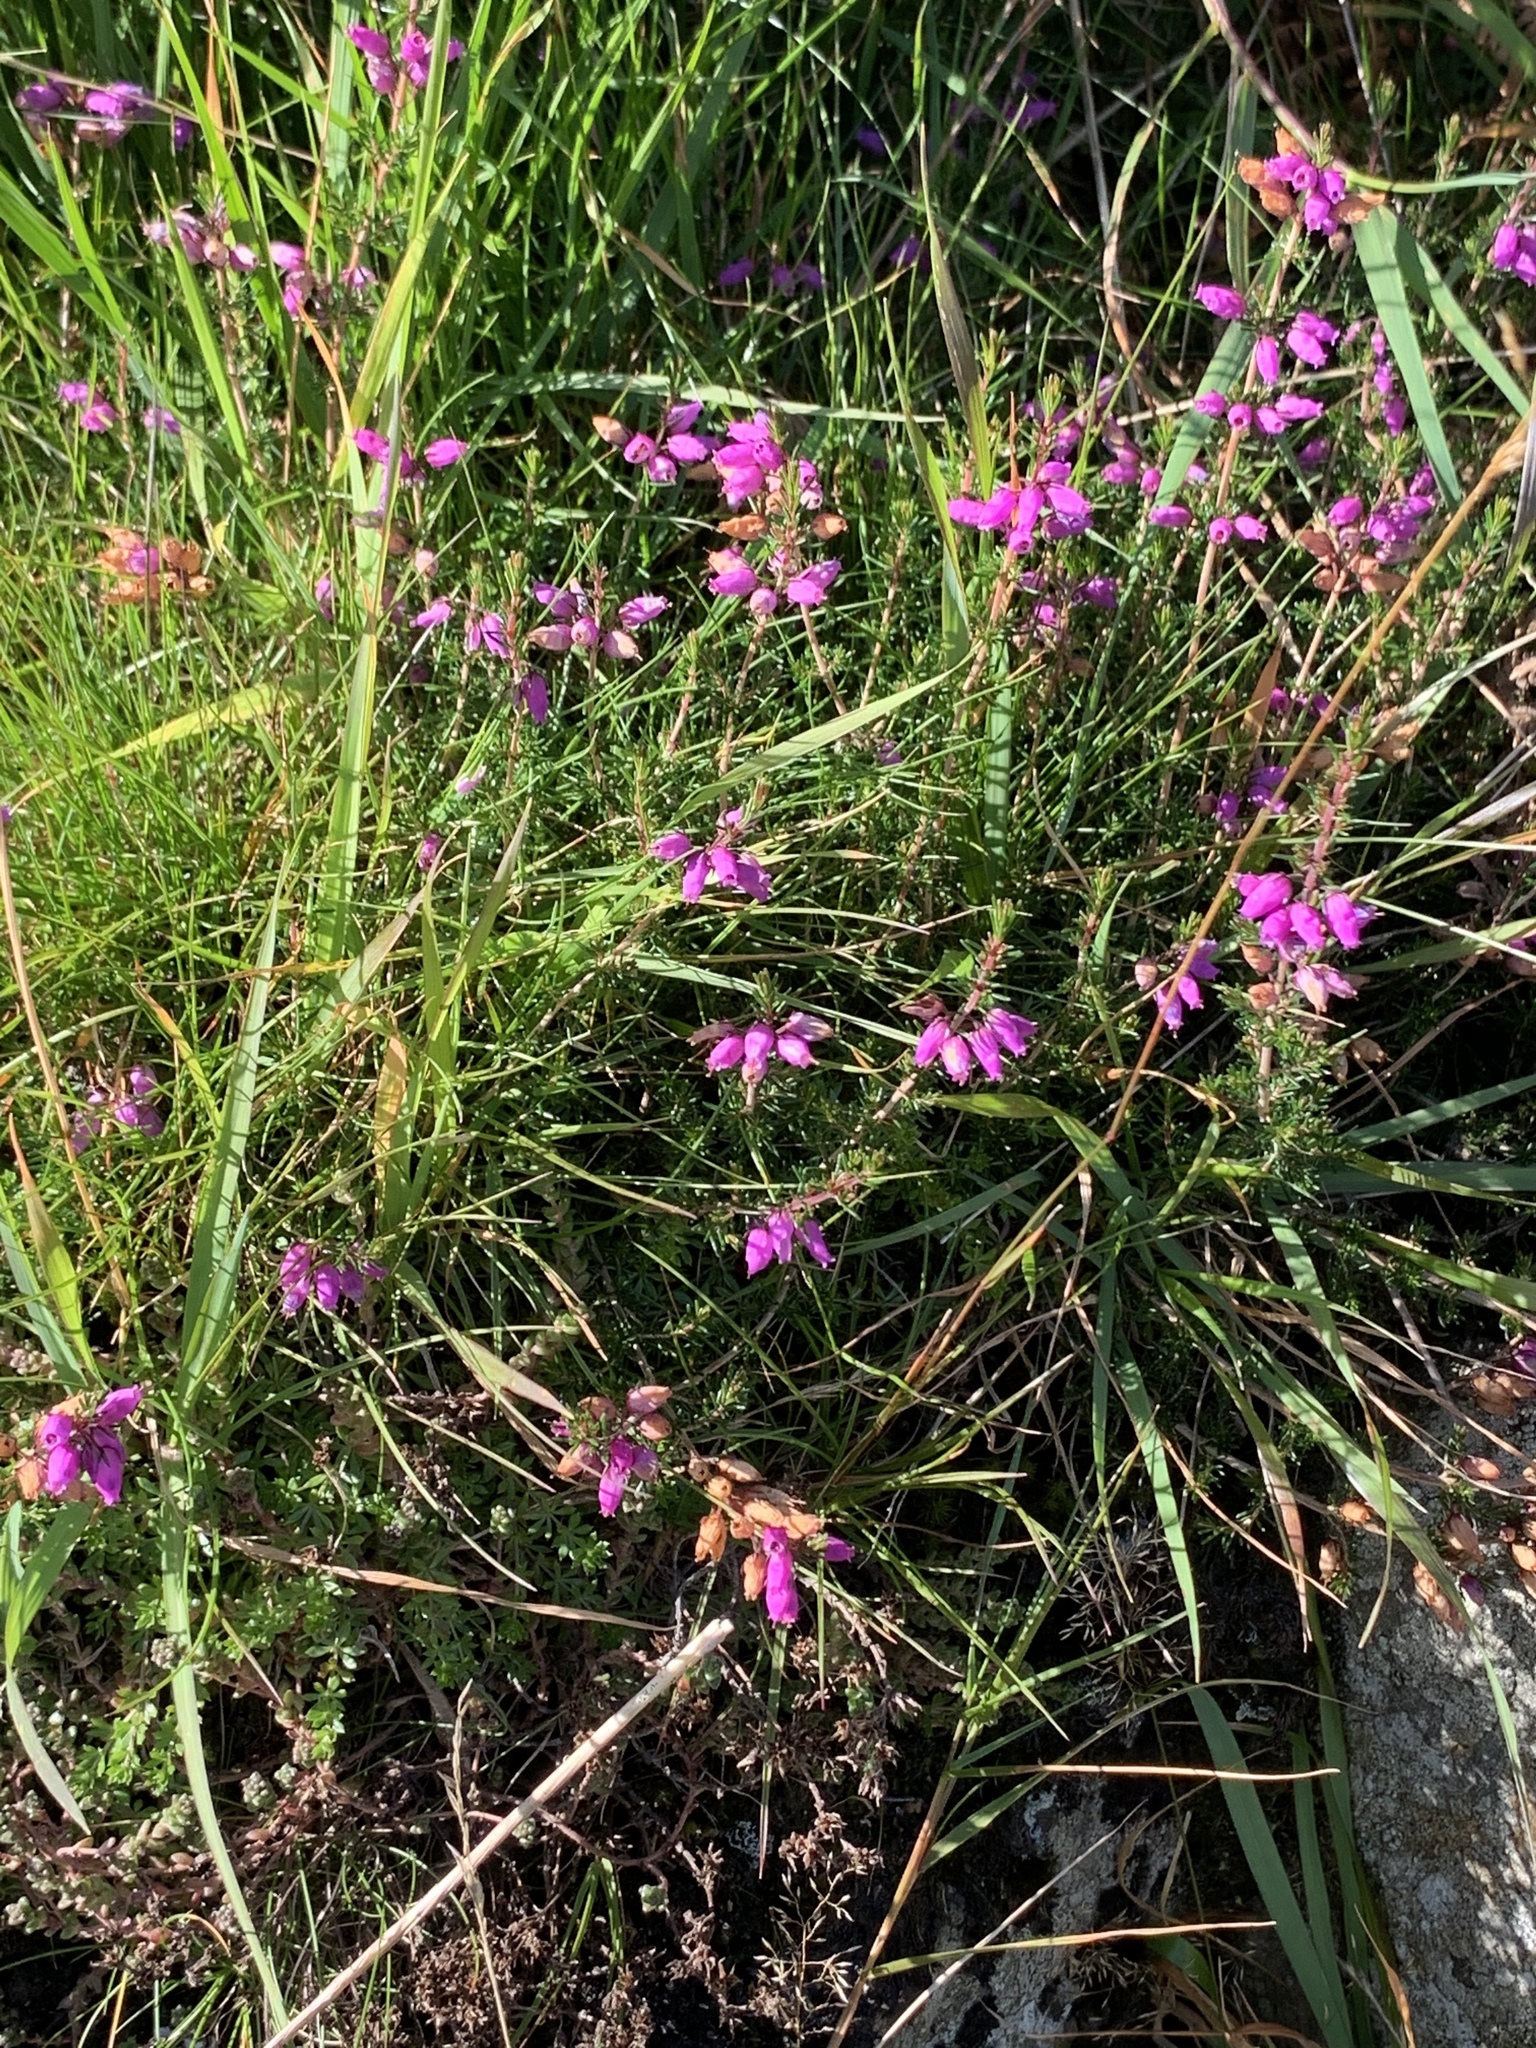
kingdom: Plantae
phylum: Tracheophyta
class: Magnoliopsida
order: Ericales
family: Ericaceae
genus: Erica
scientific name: Erica cinerea
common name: Bell heather
